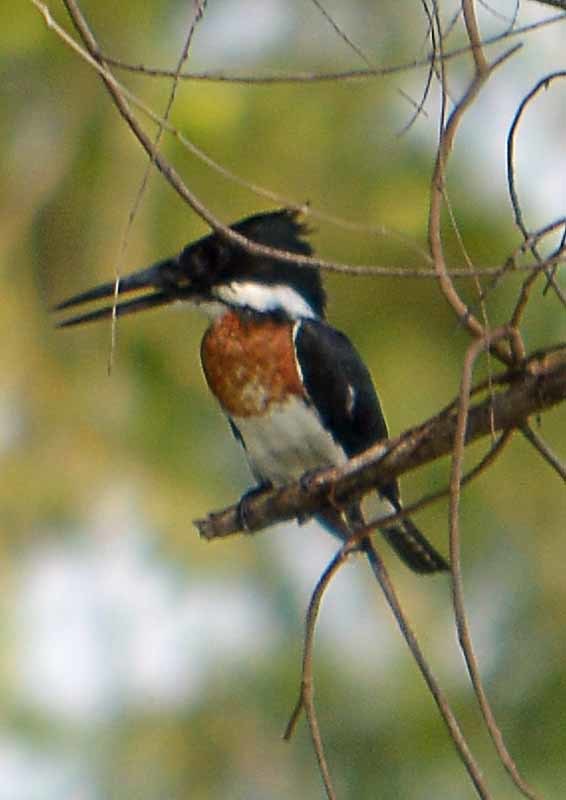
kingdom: Animalia
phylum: Chordata
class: Aves
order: Coraciiformes
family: Alcedinidae
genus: Chloroceryle
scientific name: Chloroceryle amazona
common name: Amazon kingfisher
